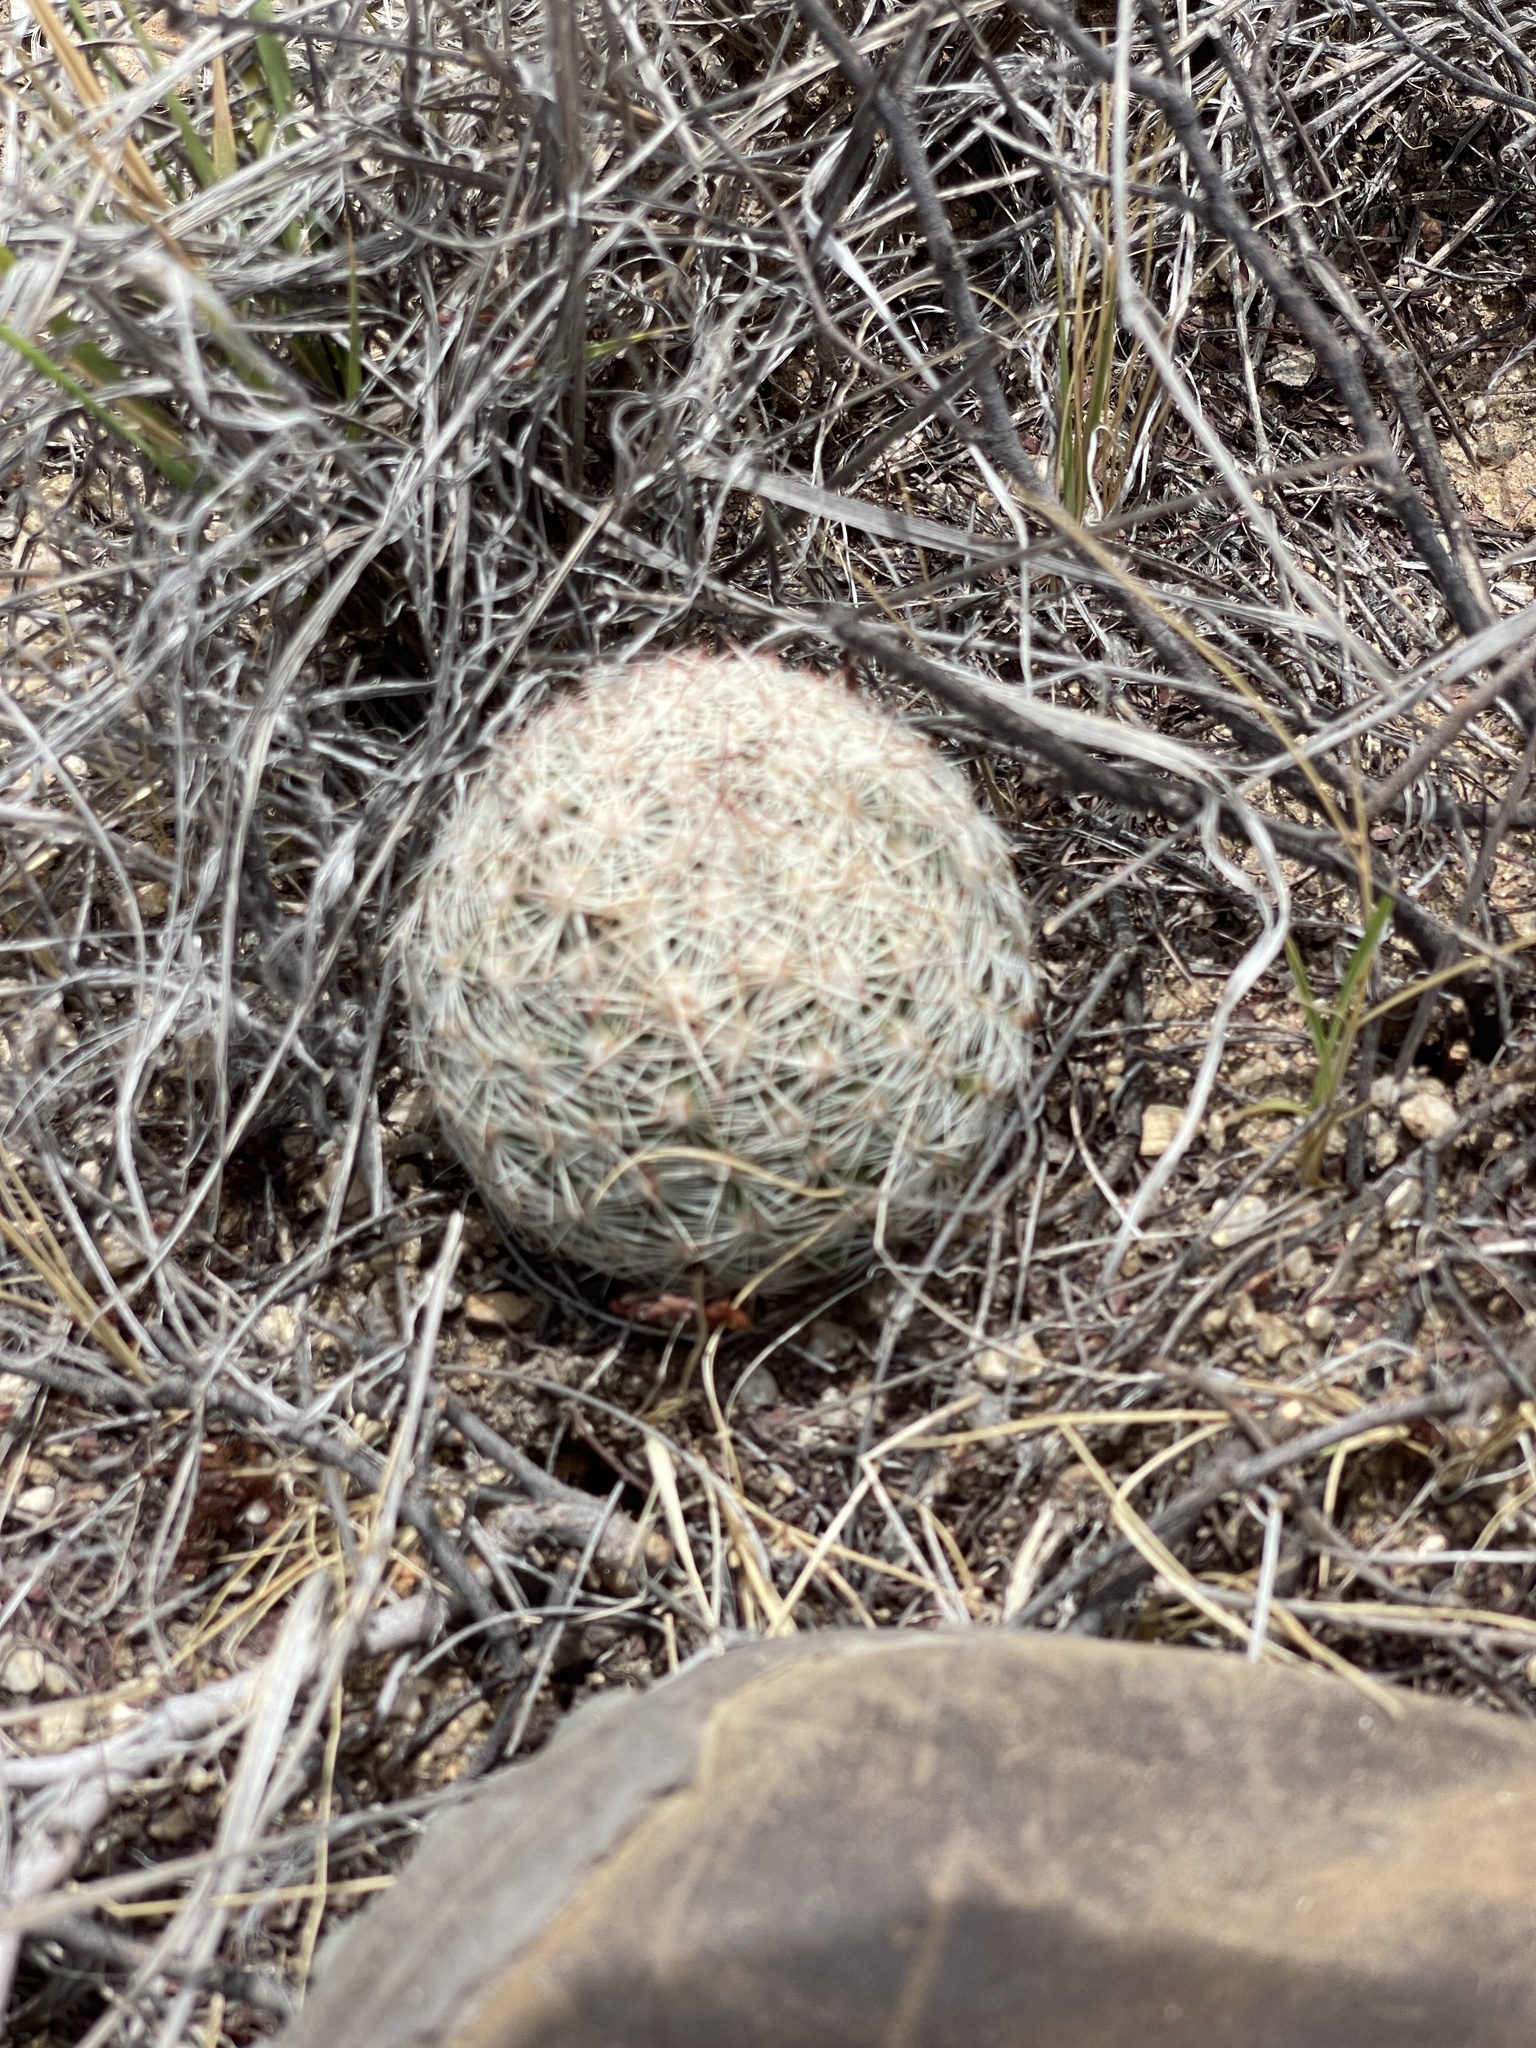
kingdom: Plantae
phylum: Tracheophyta
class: Magnoliopsida
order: Caryophyllales
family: Cactaceae
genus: Pelecyphora
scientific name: Pelecyphora vivipara
